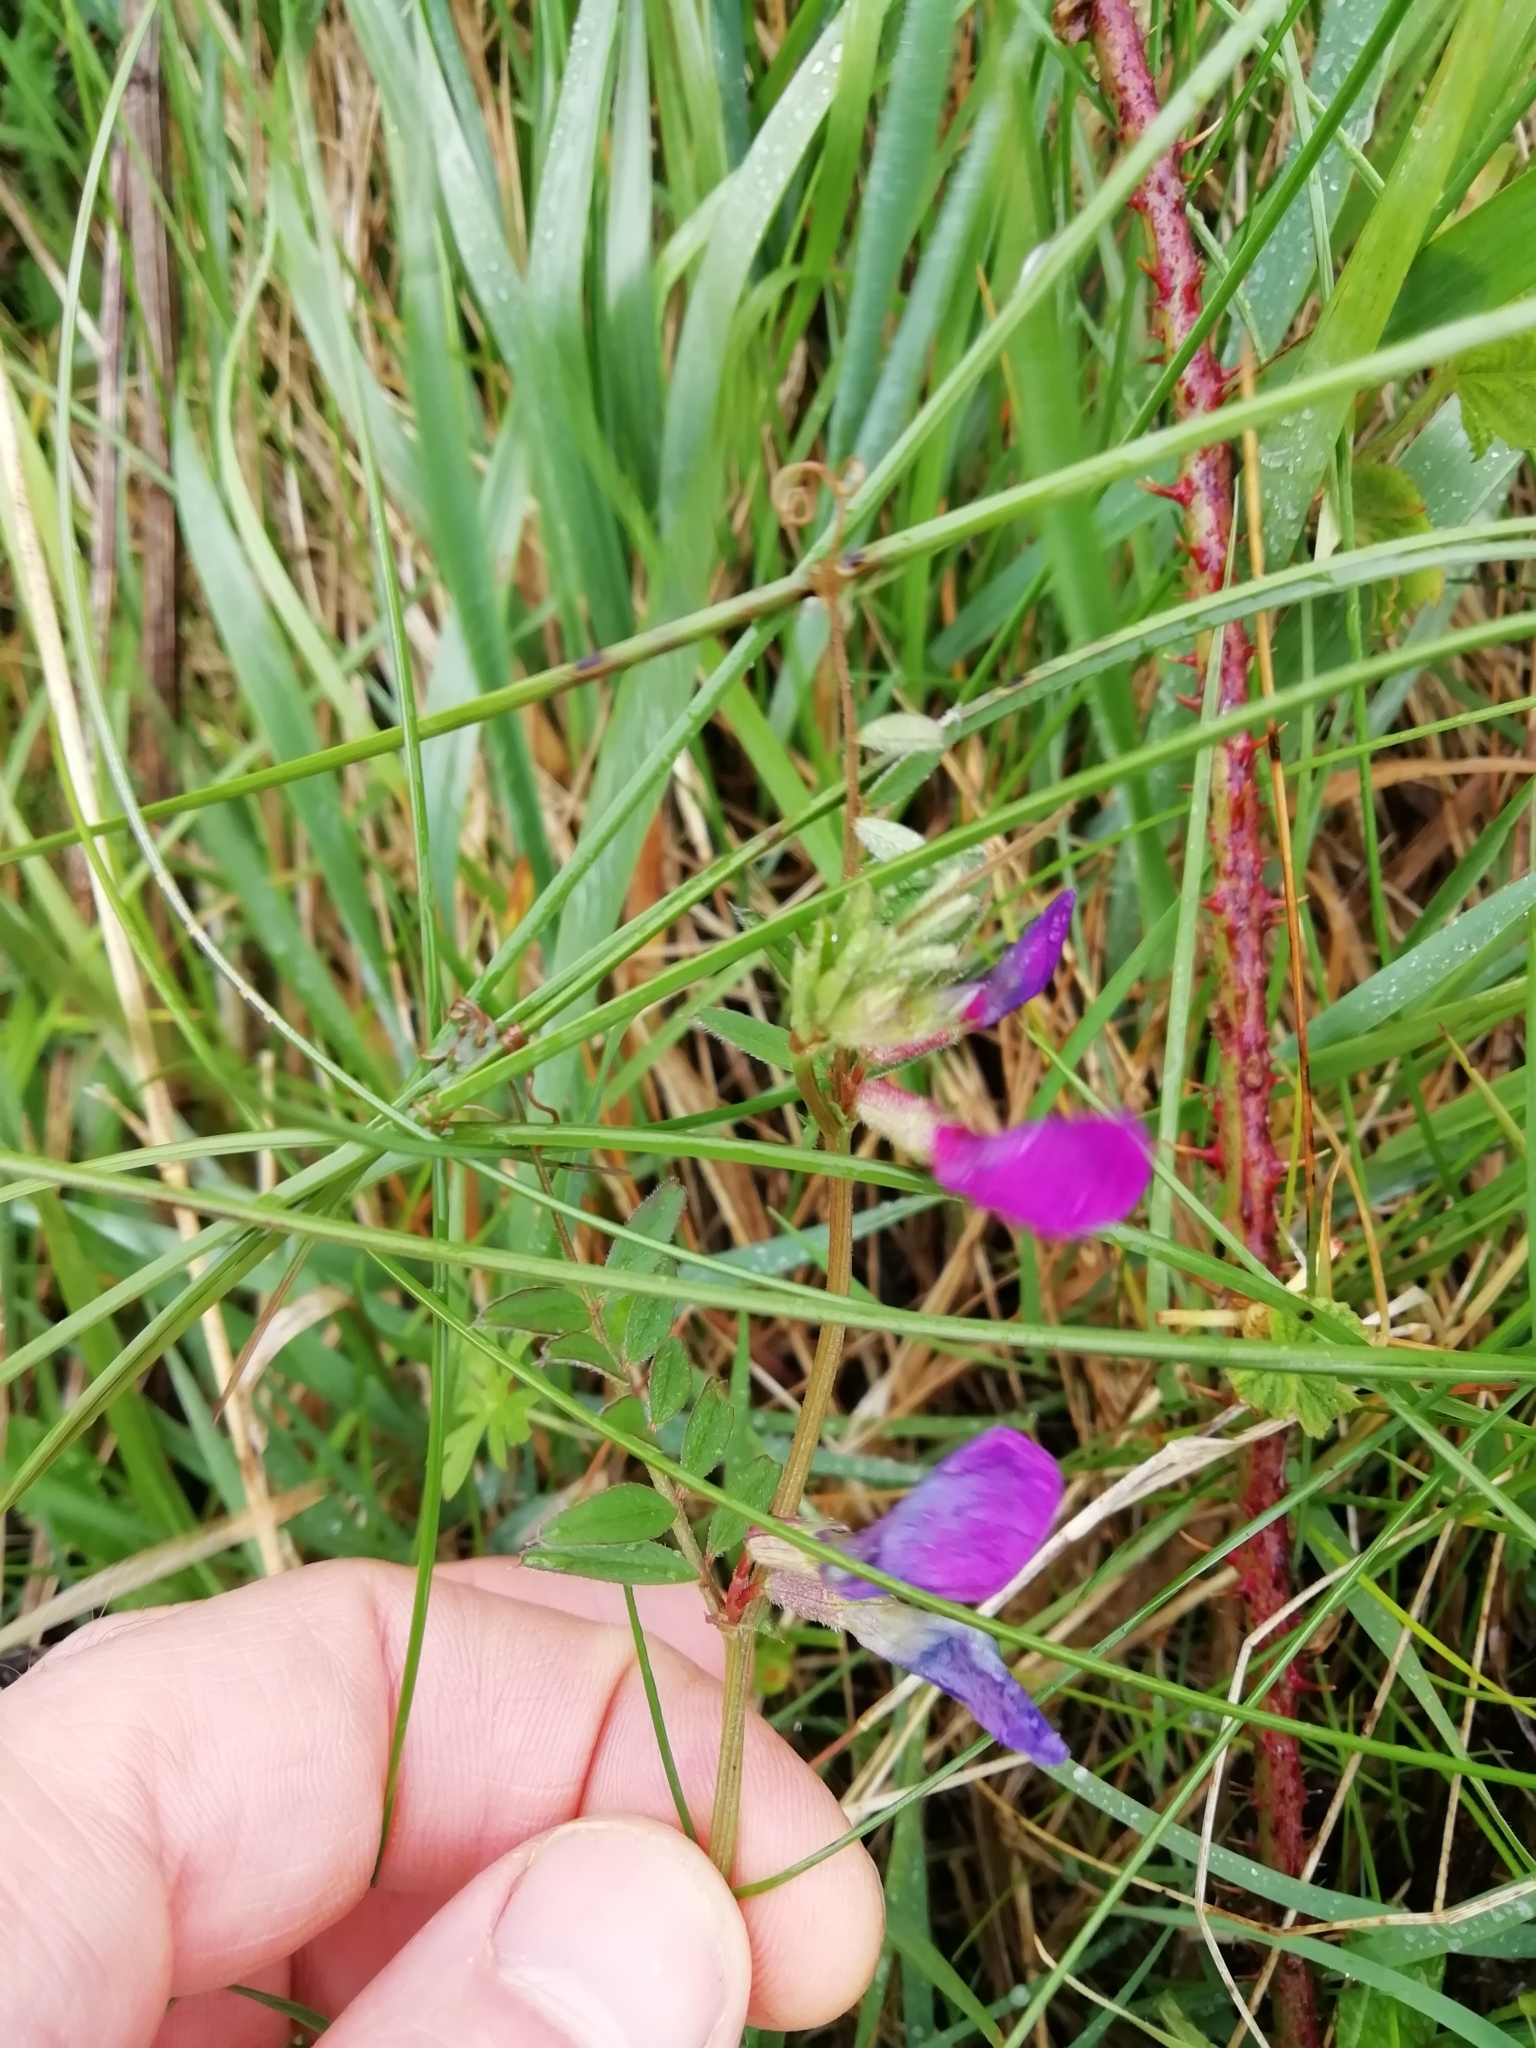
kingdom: Plantae
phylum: Tracheophyta
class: Magnoliopsida
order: Fabales
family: Fabaceae
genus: Vicia
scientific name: Vicia sativa
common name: Garden vetch
